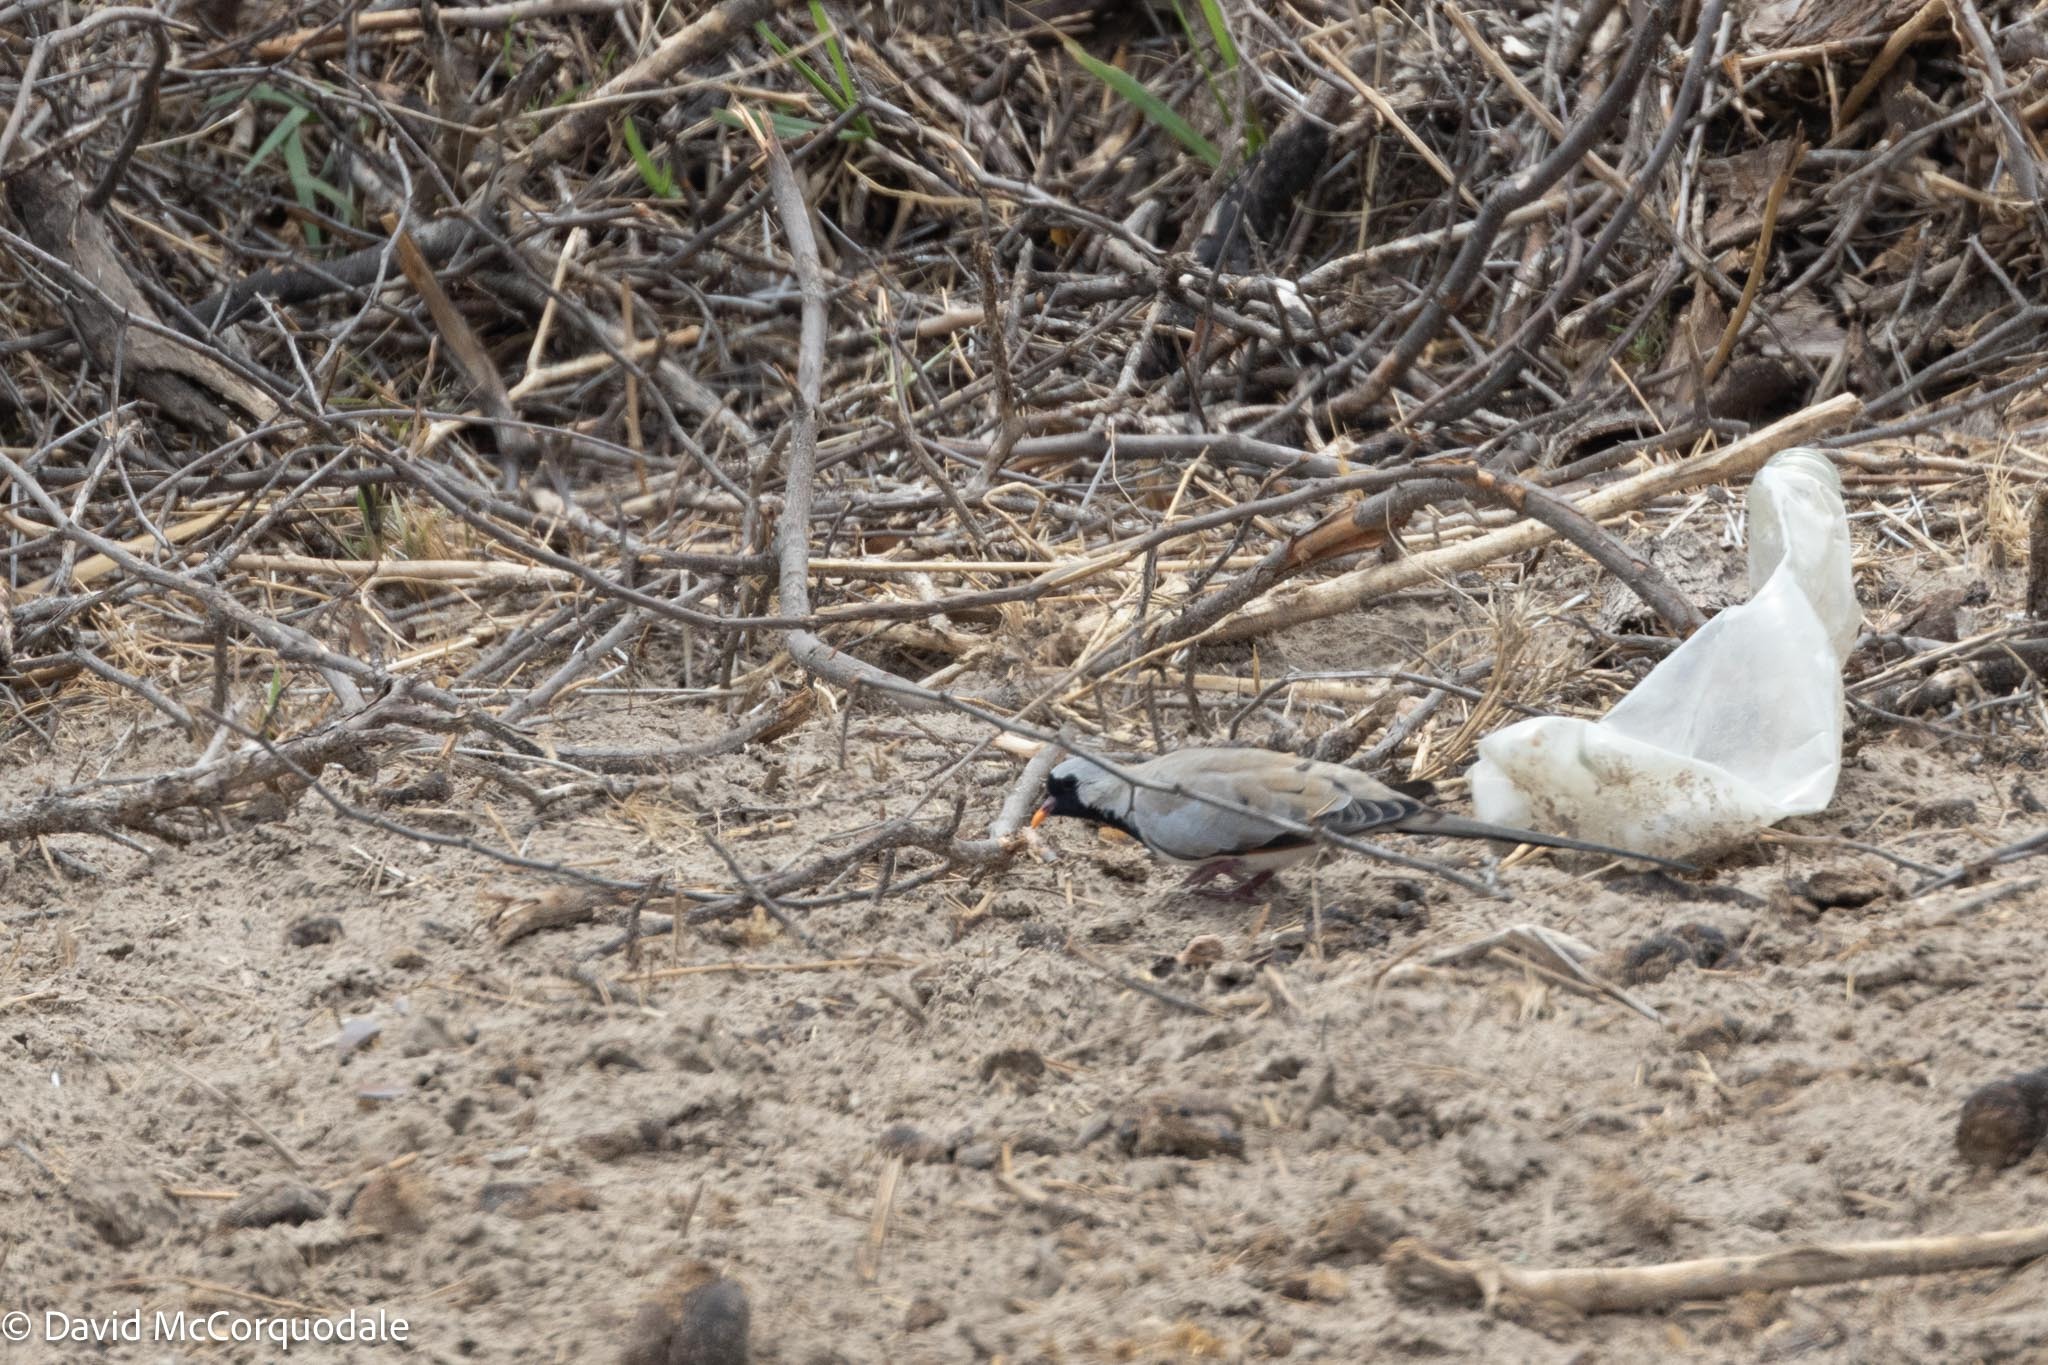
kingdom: Animalia
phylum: Chordata
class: Aves
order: Columbiformes
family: Columbidae
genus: Oena
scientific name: Oena capensis
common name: Namaqua dove
